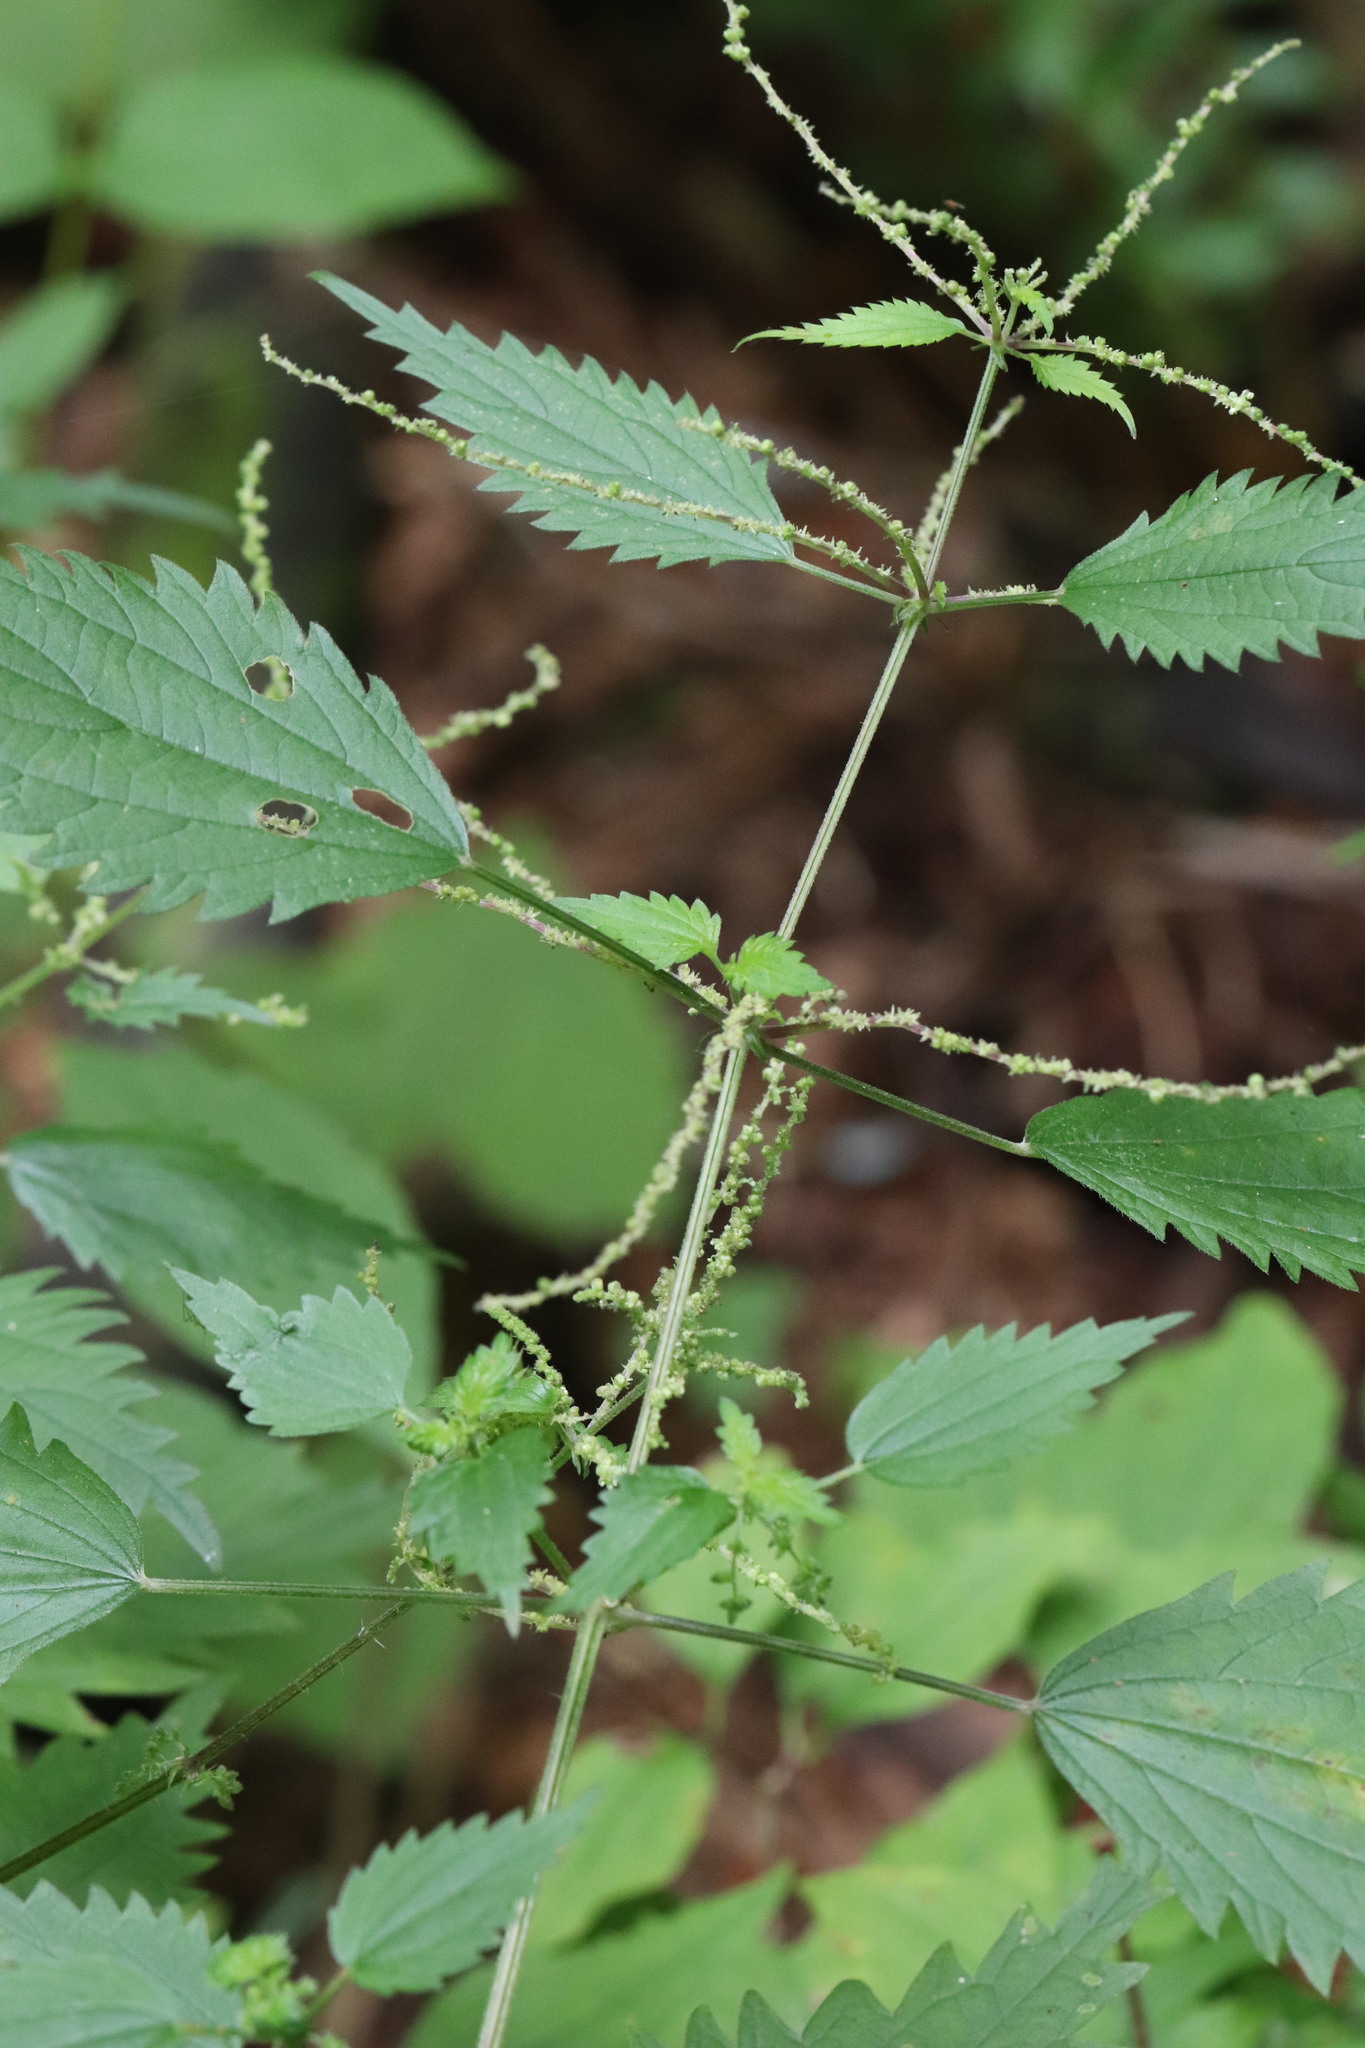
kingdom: Plantae
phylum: Tracheophyta
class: Magnoliopsida
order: Rosales
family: Urticaceae
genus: Urtica
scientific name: Urtica thunbergiana
